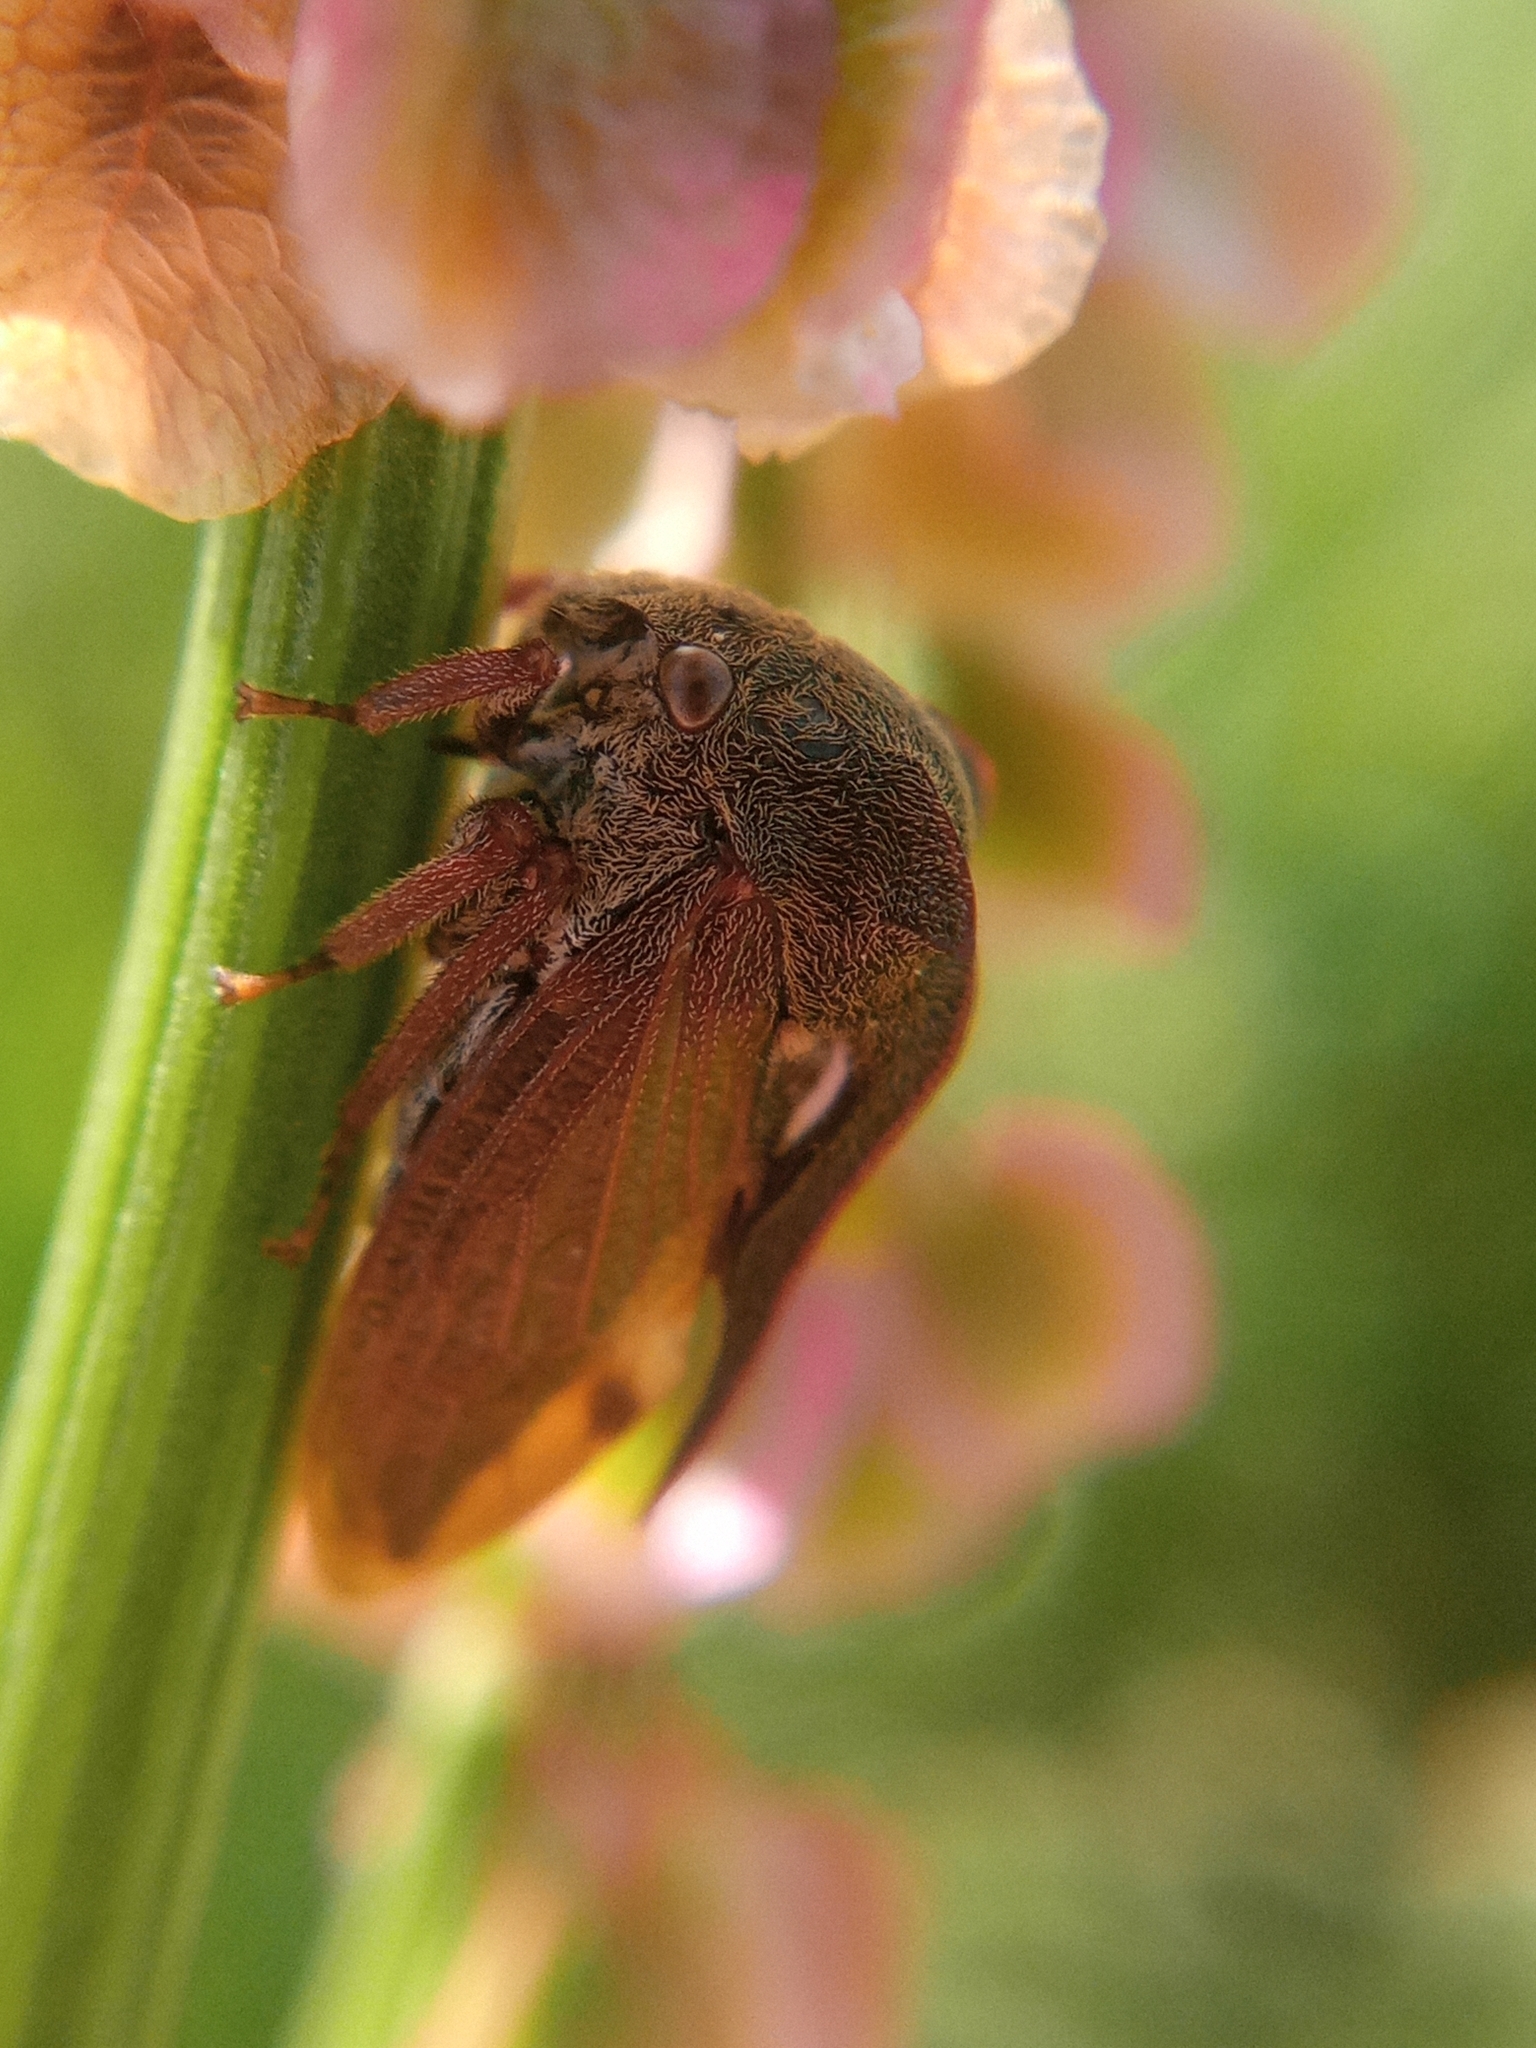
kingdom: Animalia
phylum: Arthropoda
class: Insecta
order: Hemiptera
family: Membracidae
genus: Centrotus
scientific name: Centrotus cornuta
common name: Treehopper
